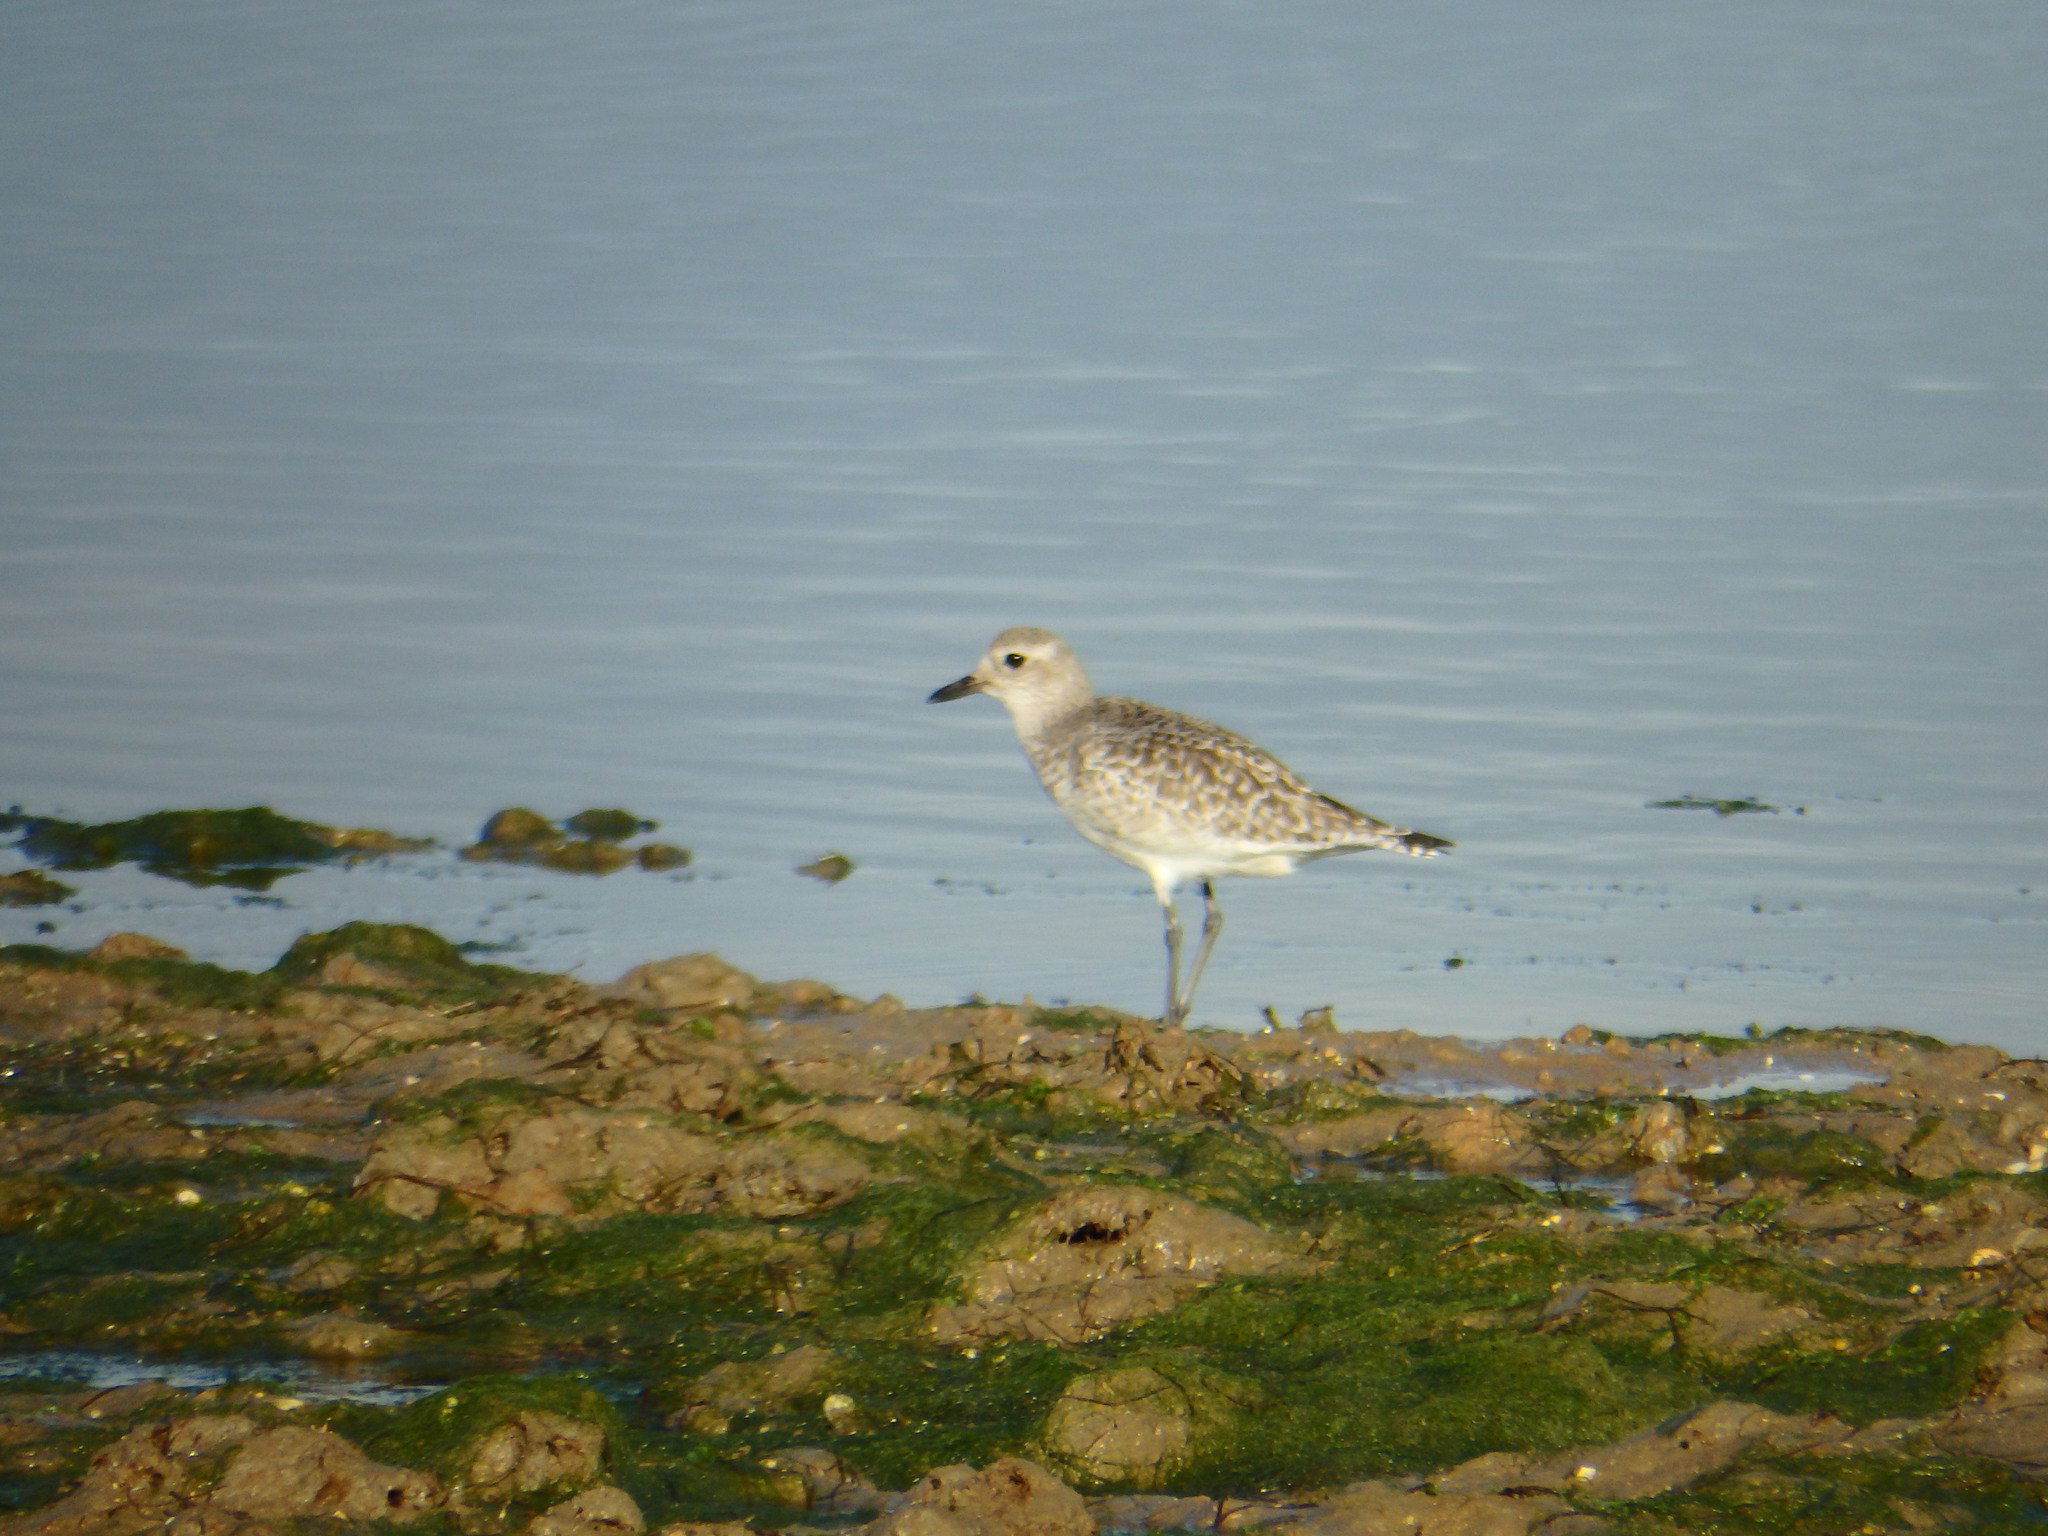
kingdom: Animalia
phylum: Chordata
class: Aves
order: Charadriiformes
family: Charadriidae
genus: Pluvialis
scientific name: Pluvialis squatarola
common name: Grey plover
